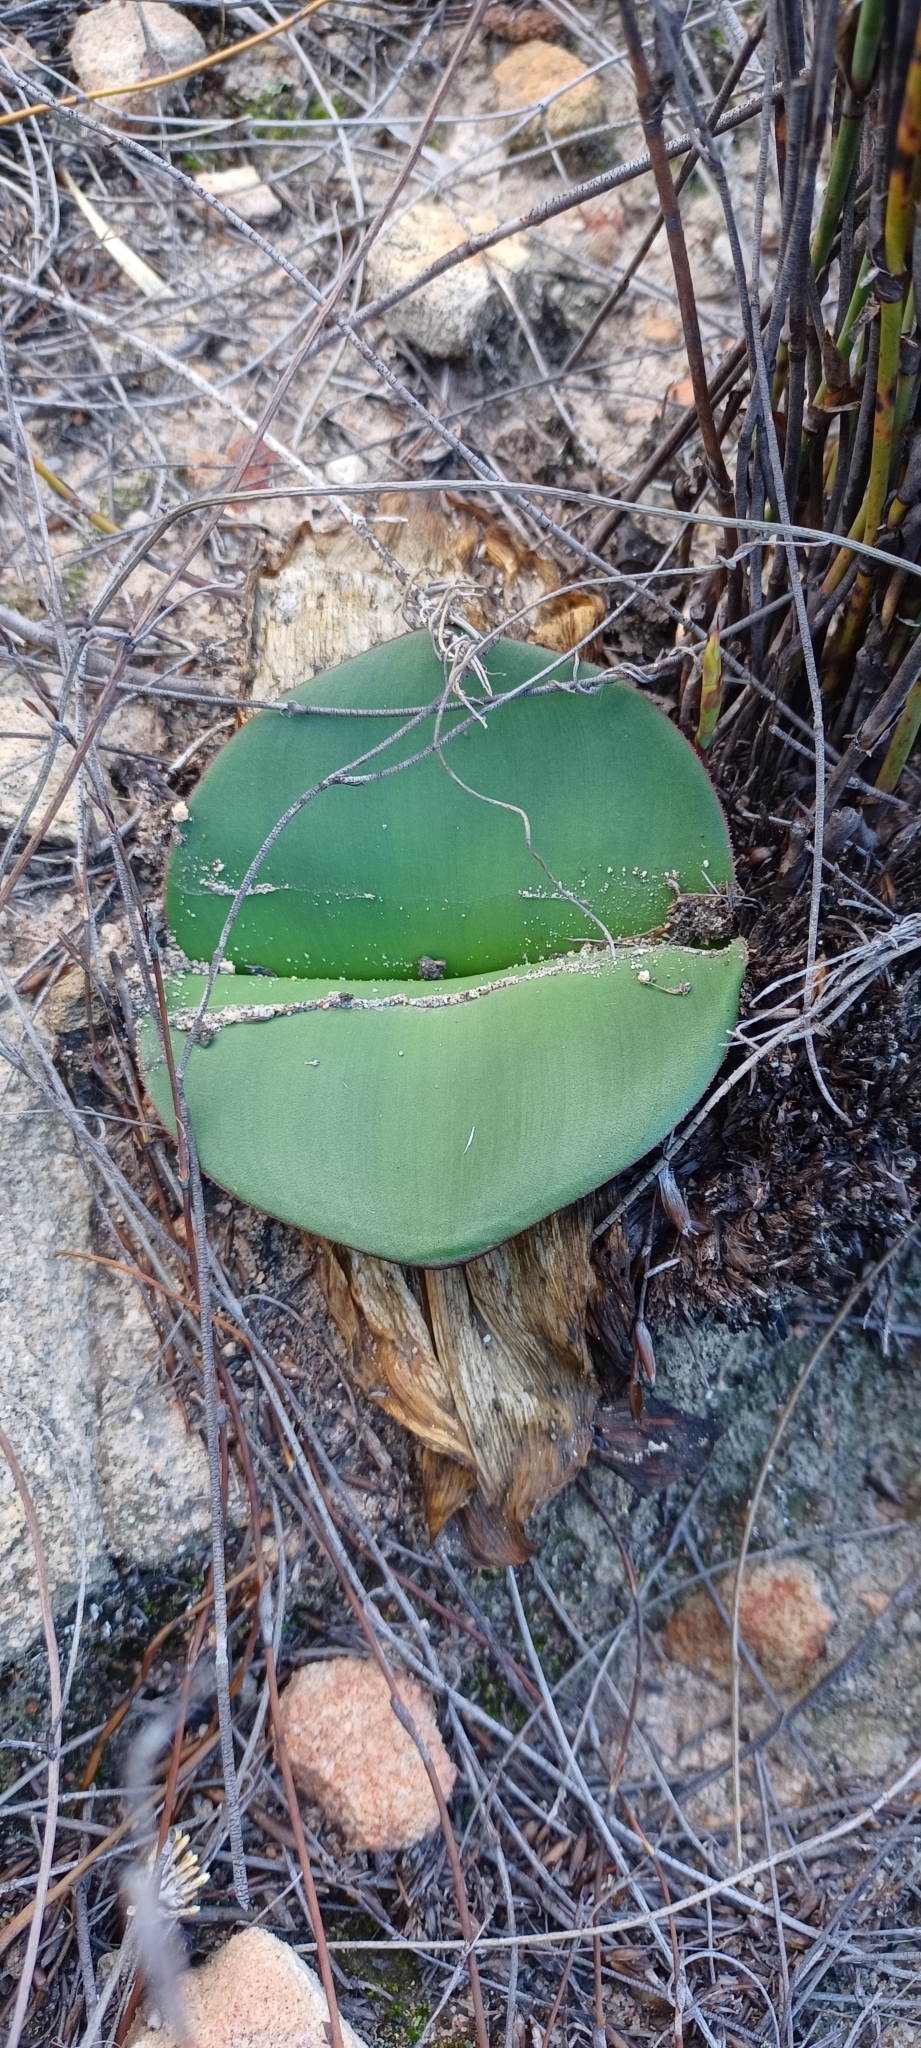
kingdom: Plantae
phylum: Tracheophyta
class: Liliopsida
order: Asparagales
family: Amaryllidaceae
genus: Haemanthus
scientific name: Haemanthus sanguineus
